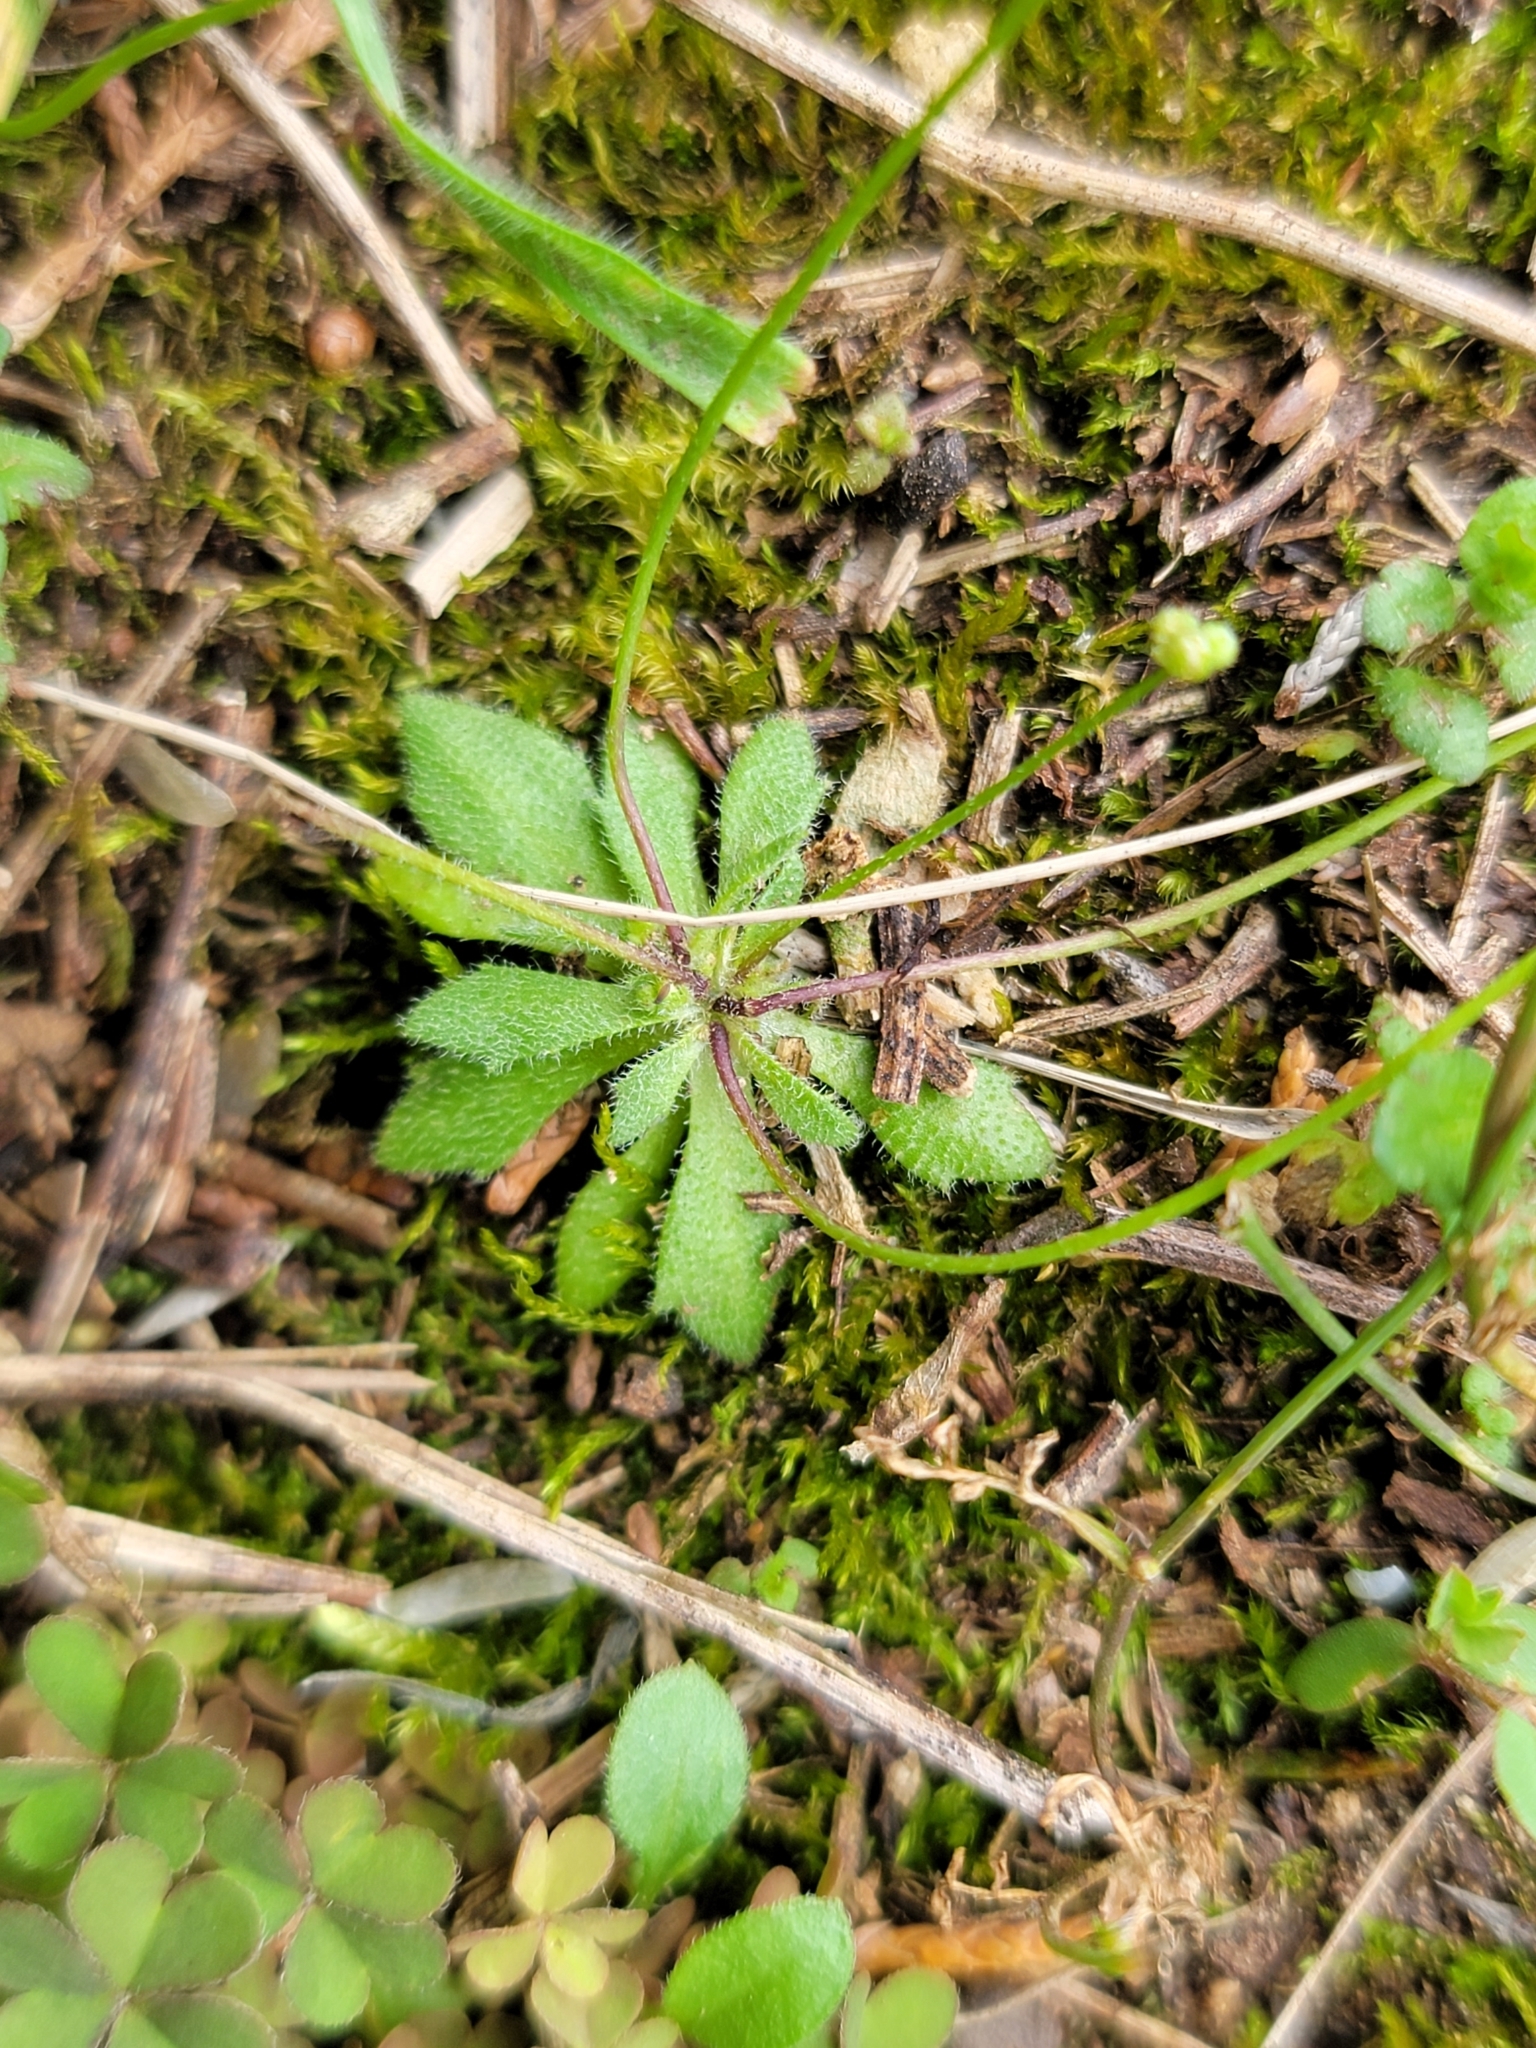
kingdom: Plantae
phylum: Tracheophyta
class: Magnoliopsida
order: Brassicales
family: Brassicaceae
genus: Draba
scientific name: Draba verna
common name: Spring draba
